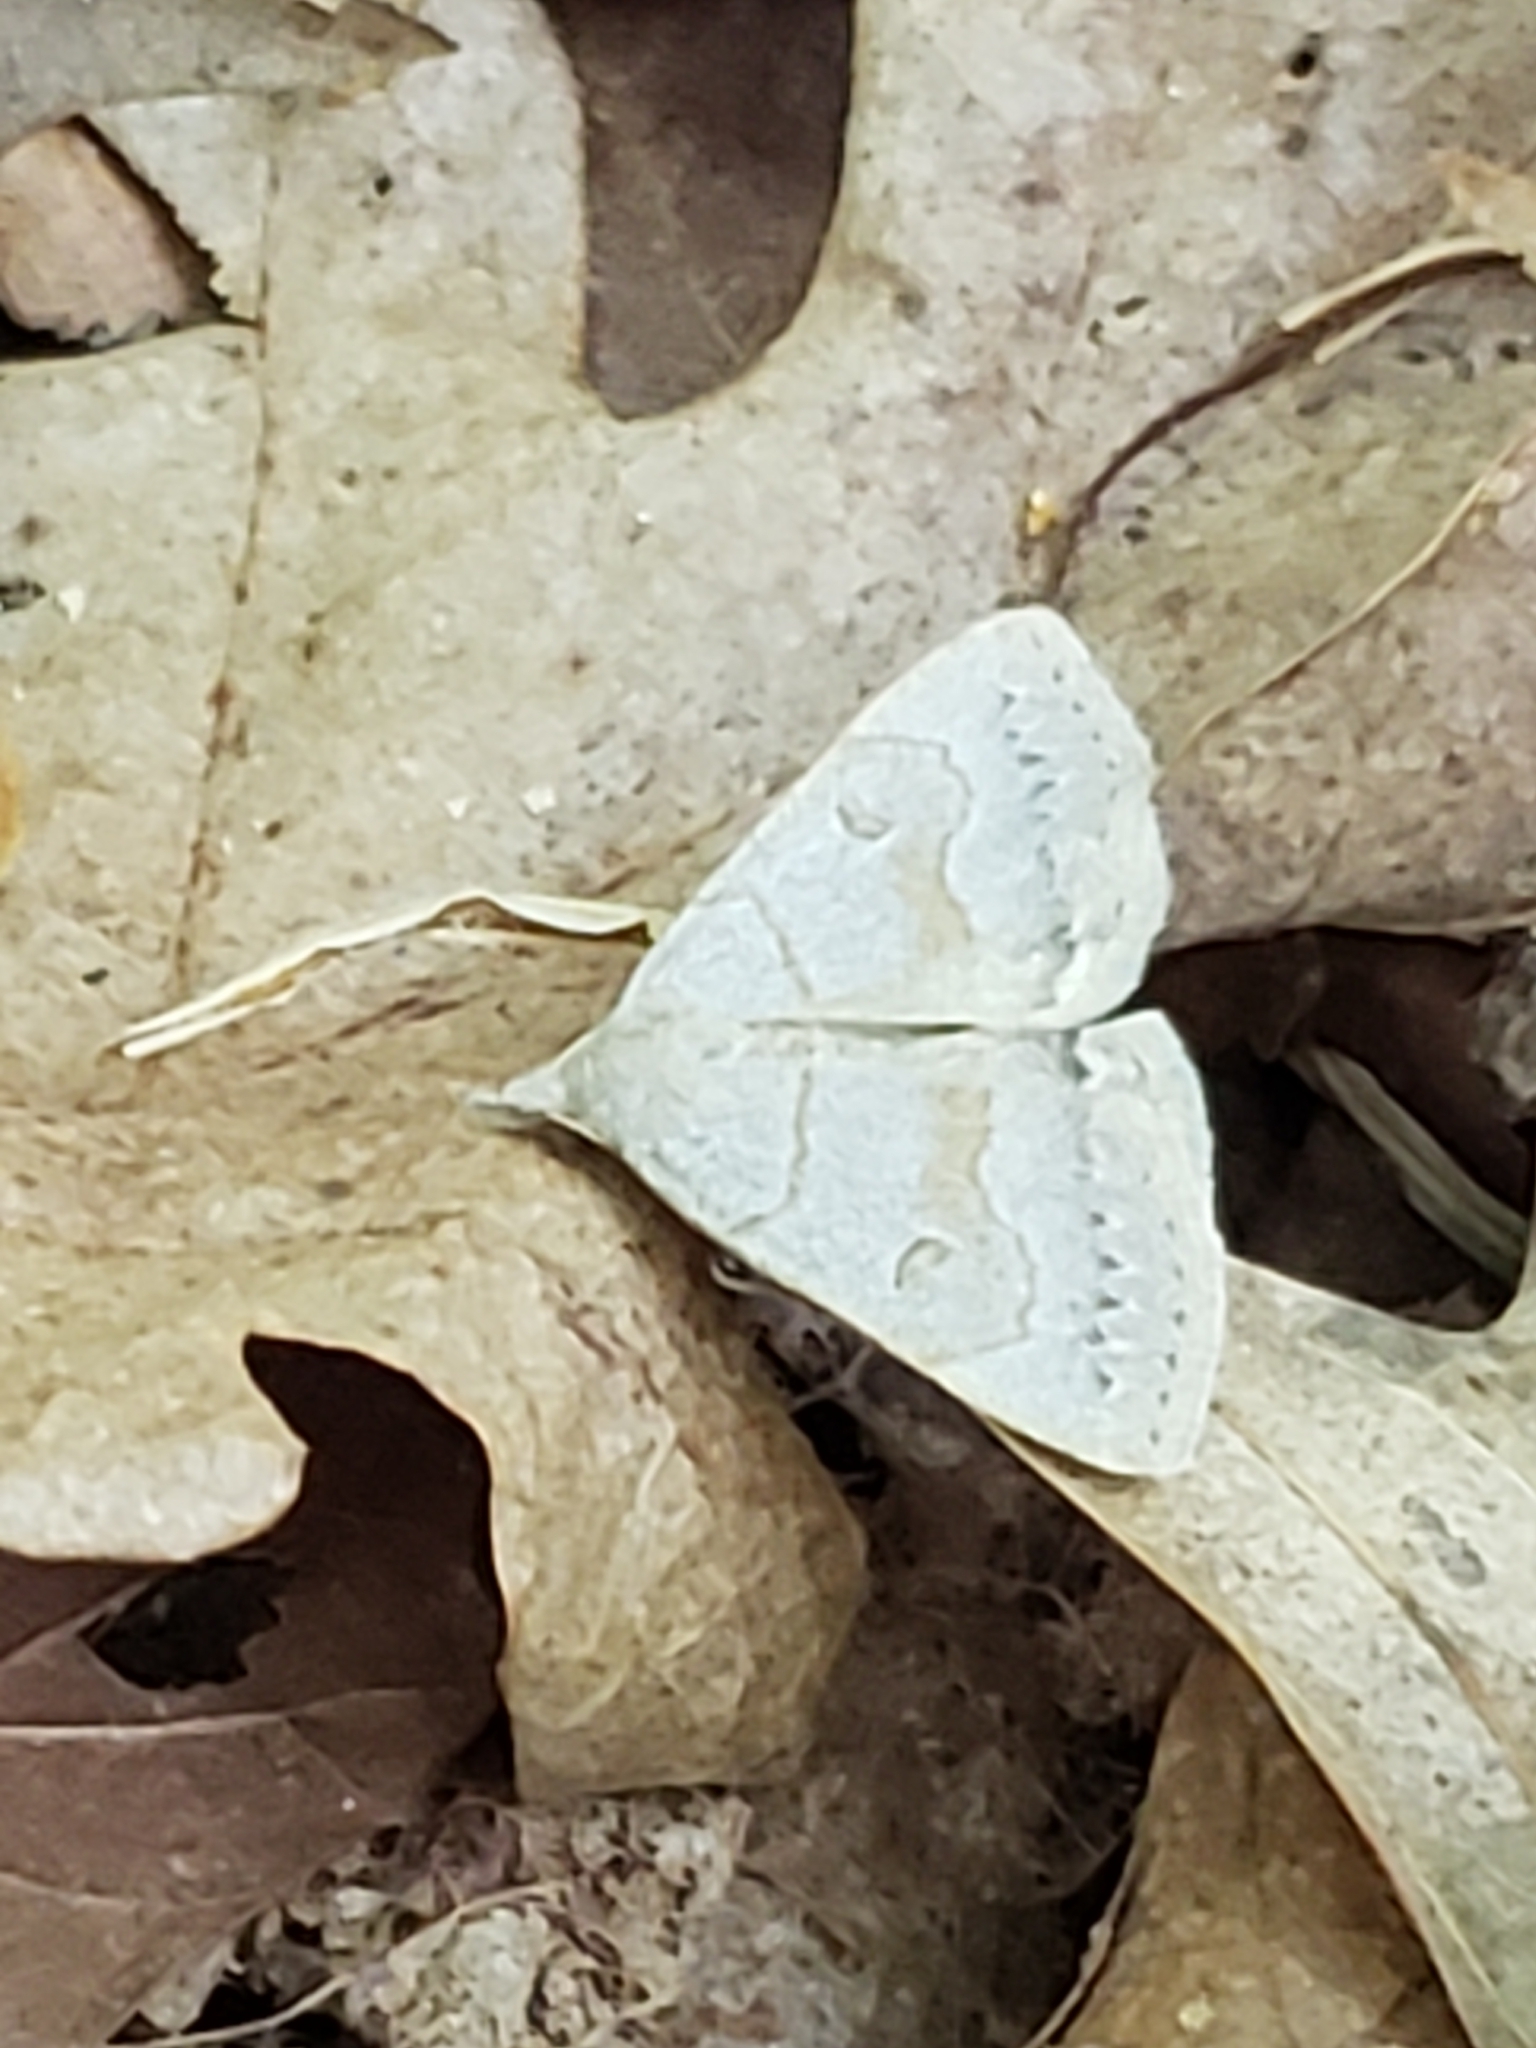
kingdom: Animalia
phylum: Arthropoda
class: Insecta
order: Lepidoptera
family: Erebidae
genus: Macrochilo
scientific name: Macrochilo morbidalis
